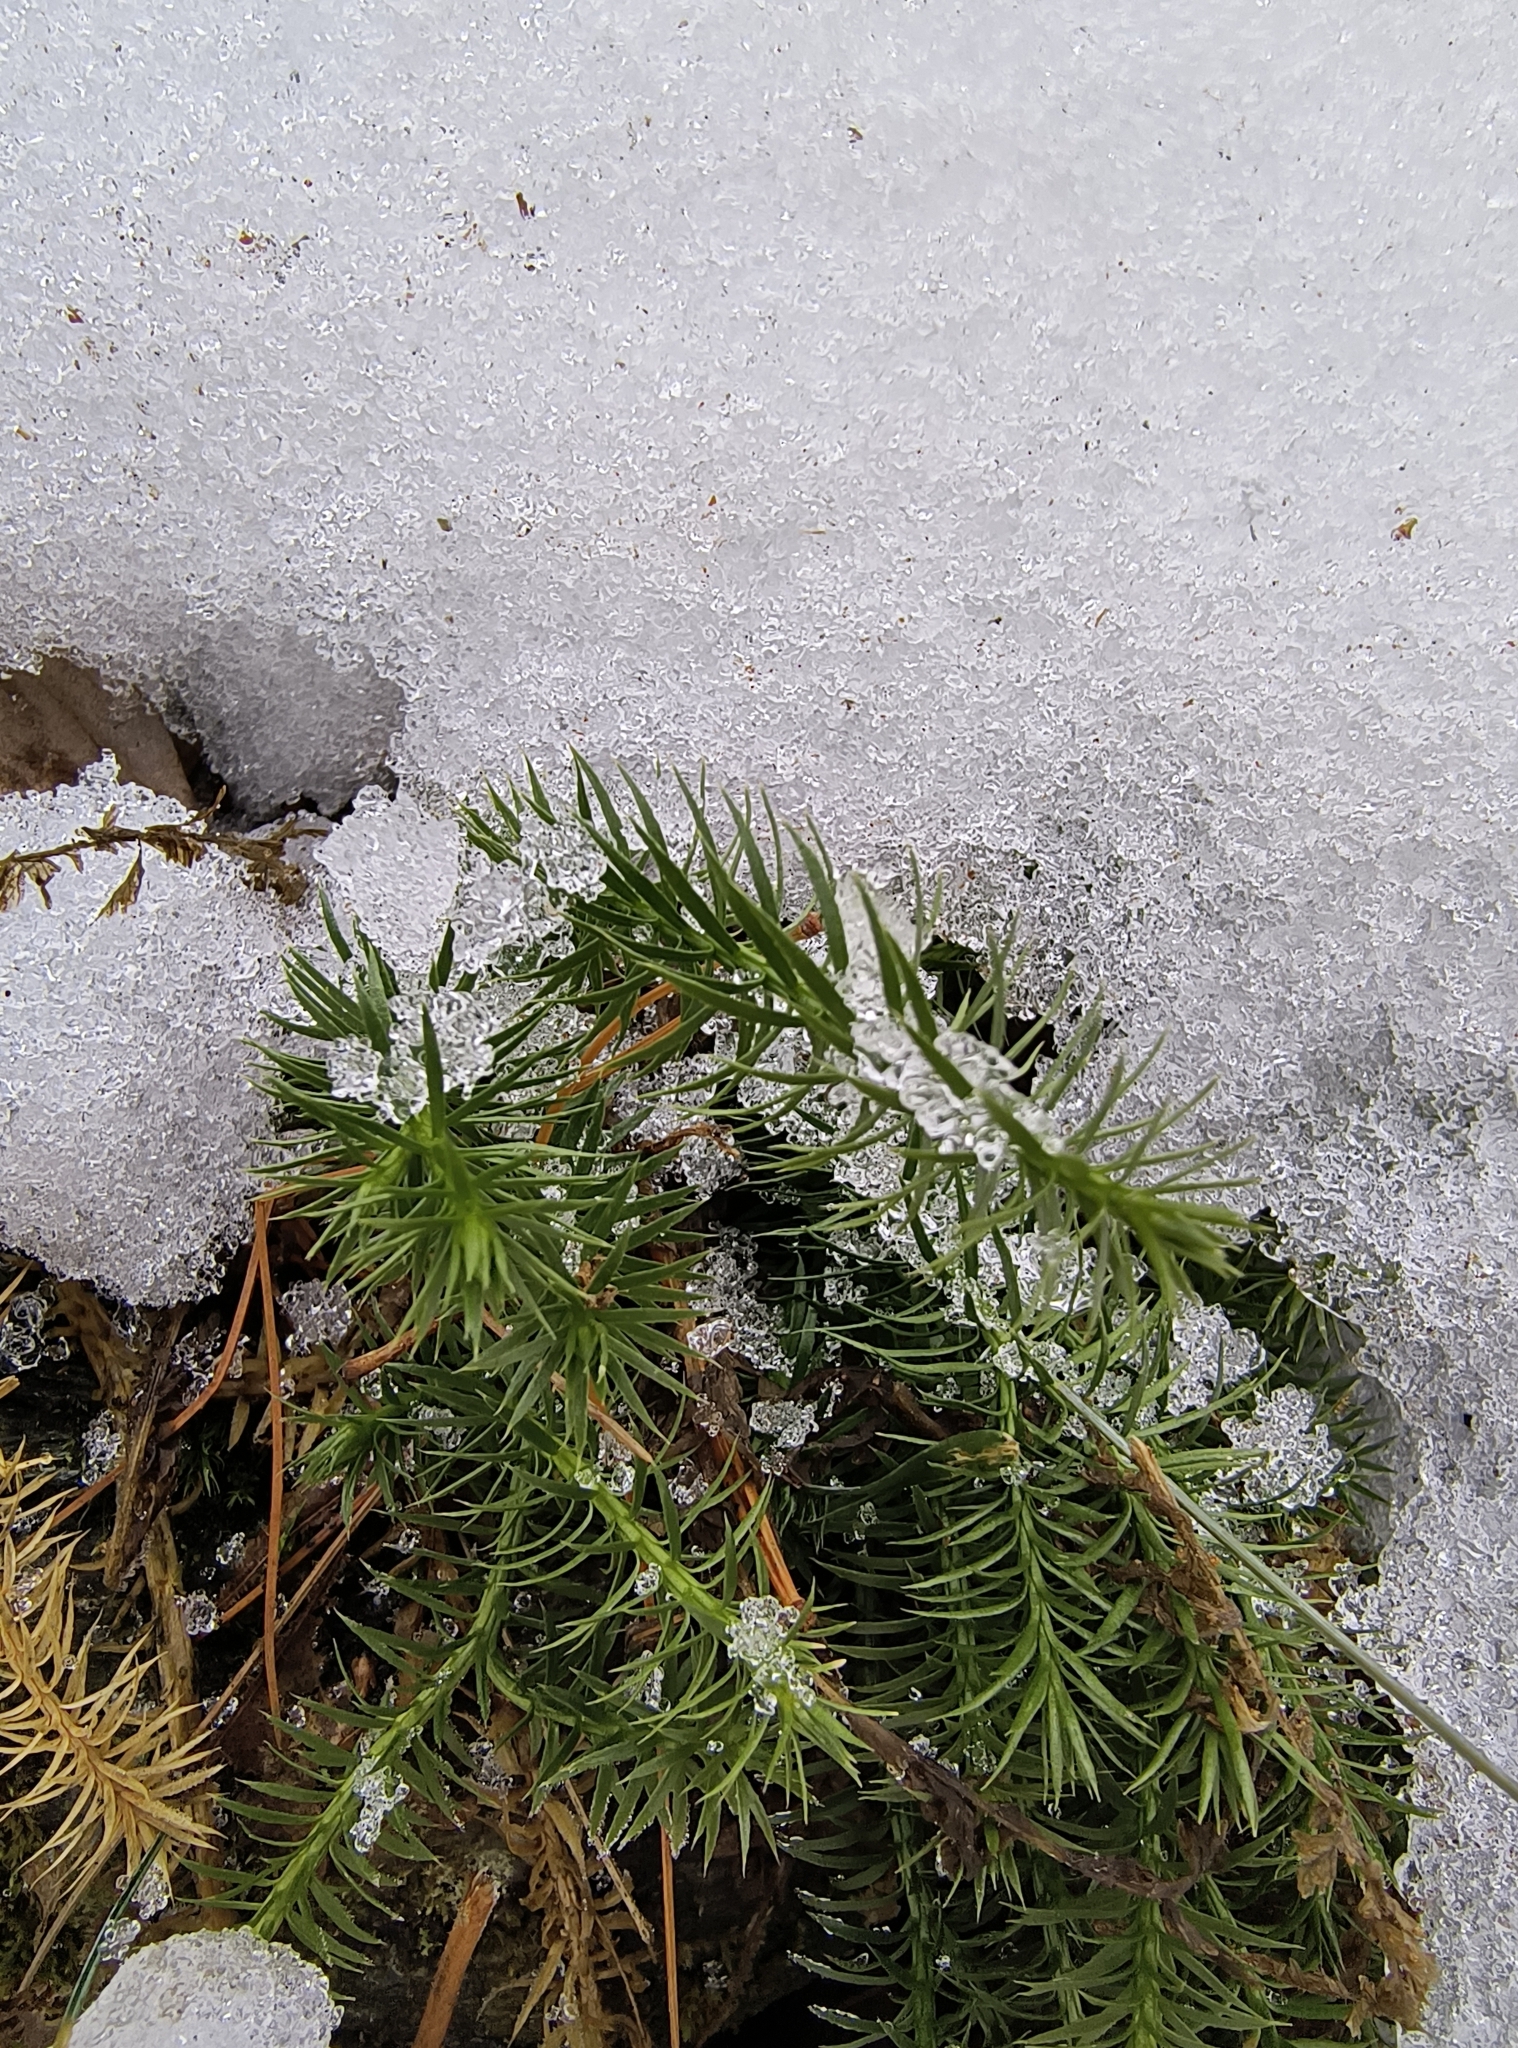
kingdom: Plantae
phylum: Tracheophyta
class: Lycopodiopsida
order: Lycopodiales
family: Lycopodiaceae
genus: Spinulum
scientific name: Spinulum annotinum
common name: Interrupted club-moss
